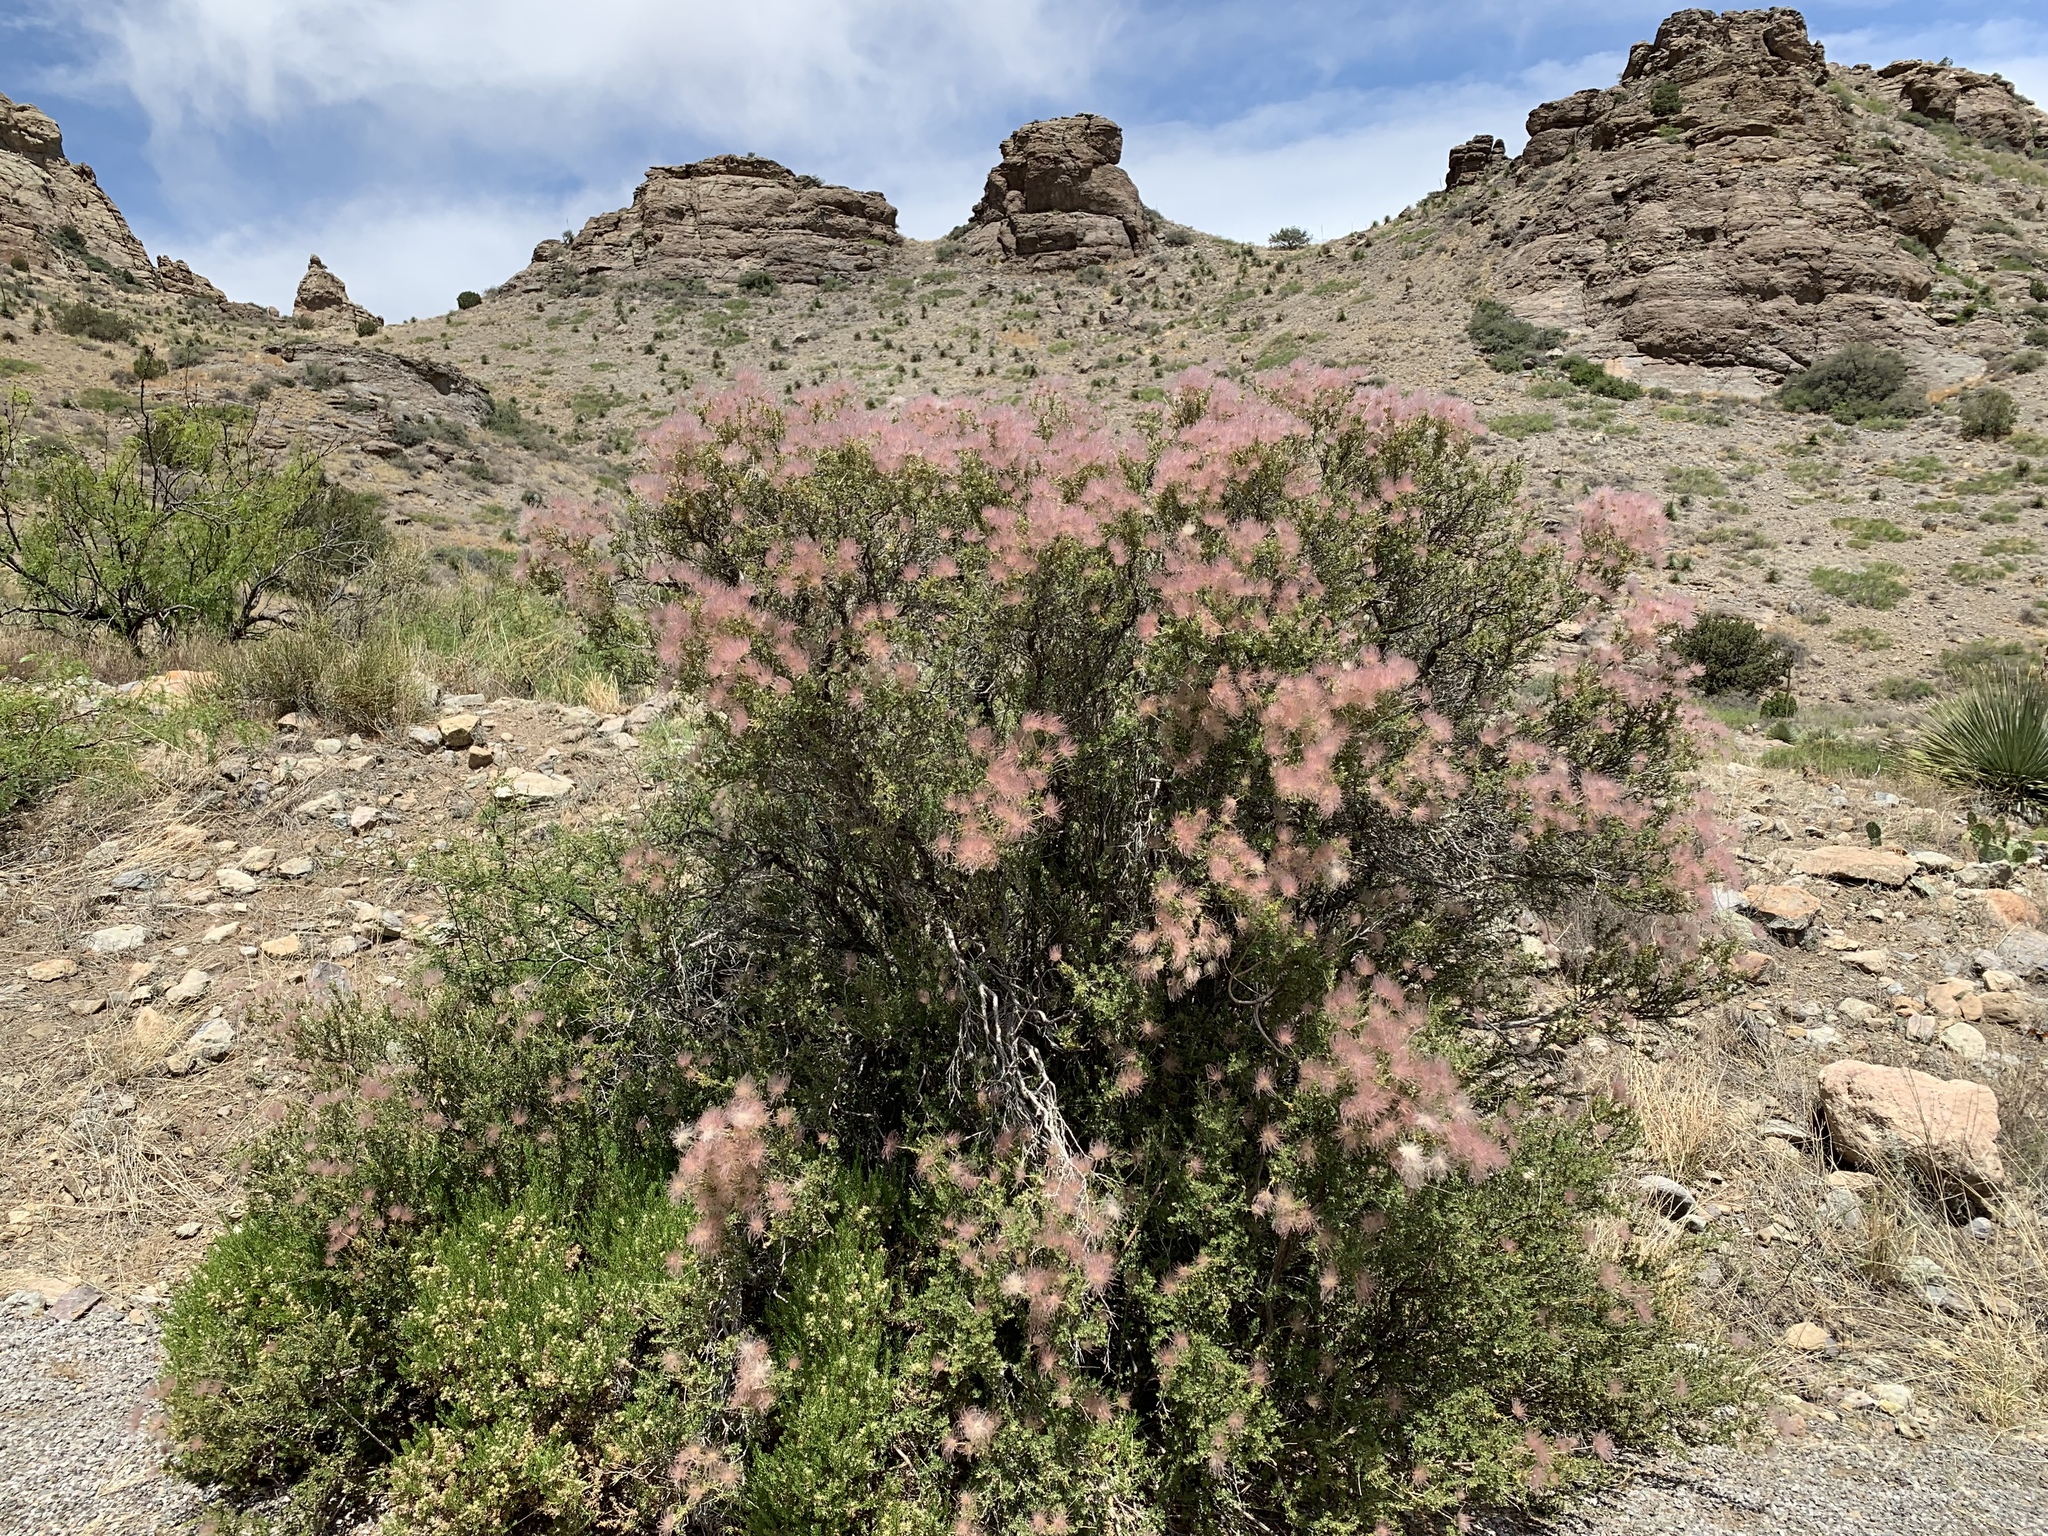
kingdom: Plantae
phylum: Tracheophyta
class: Magnoliopsida
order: Rosales
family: Rosaceae
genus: Fallugia
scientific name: Fallugia paradoxa
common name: Apache-plume
